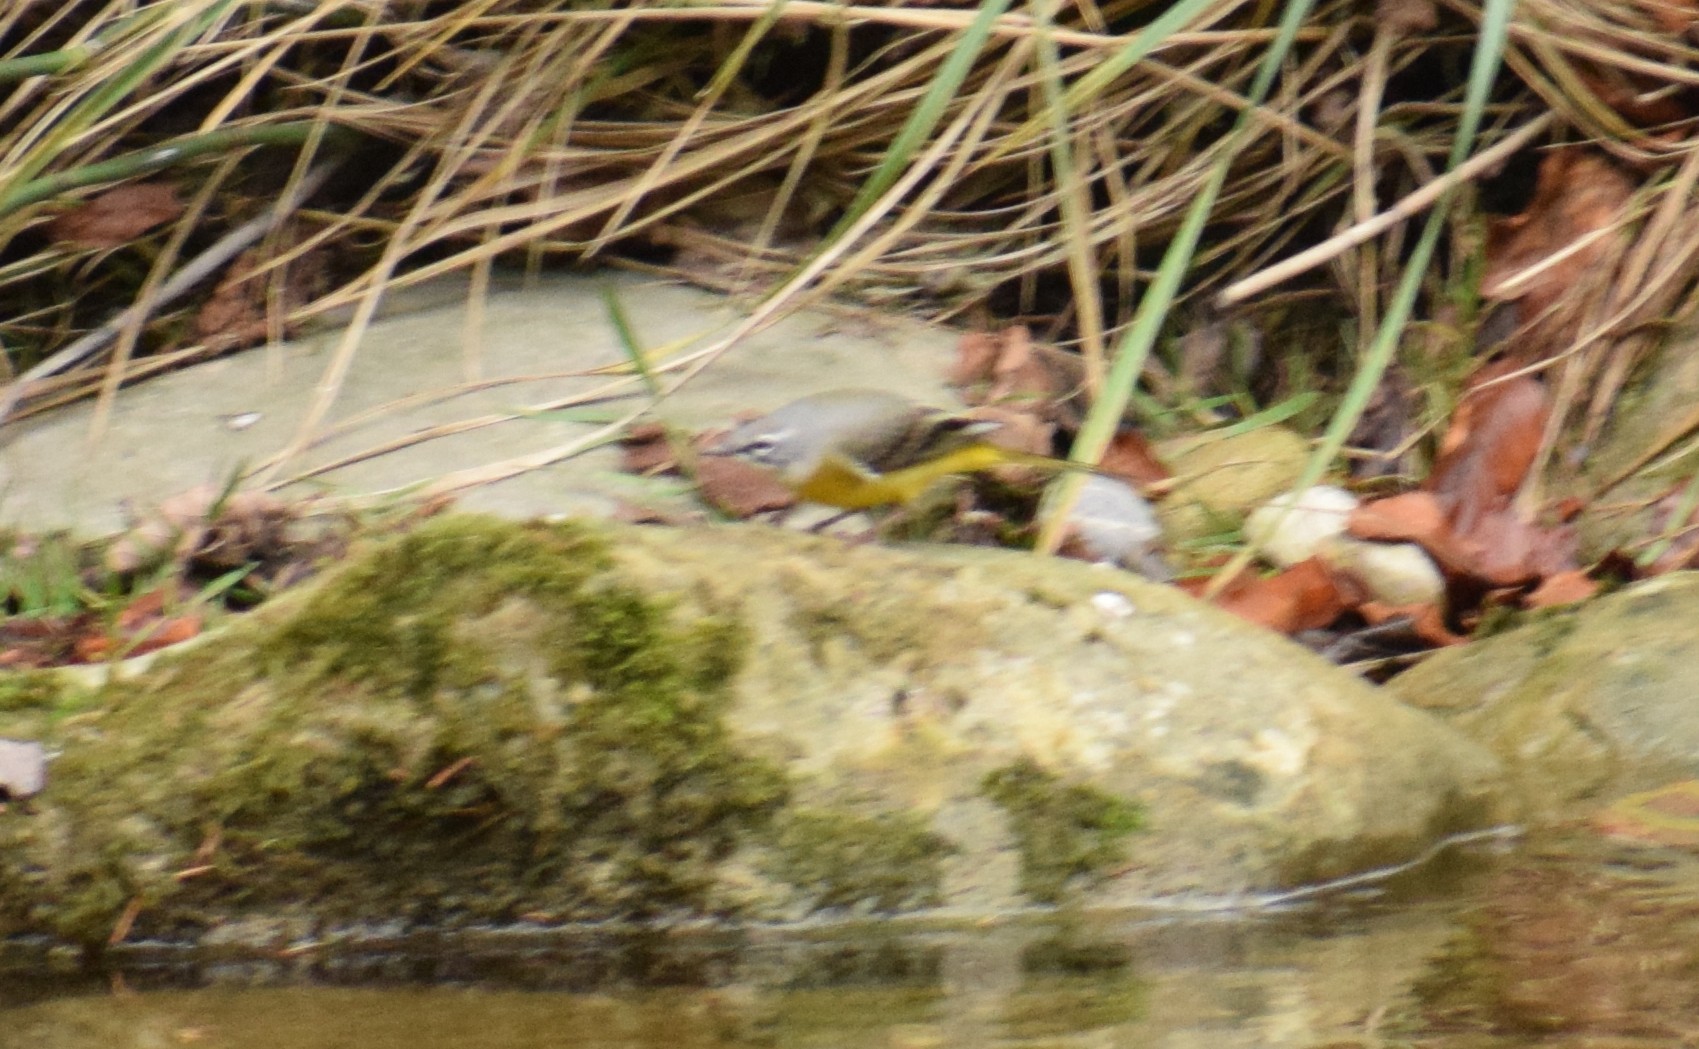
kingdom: Animalia
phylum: Chordata
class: Aves
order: Passeriformes
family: Motacillidae
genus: Motacilla
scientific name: Motacilla cinerea
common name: Grey wagtail
